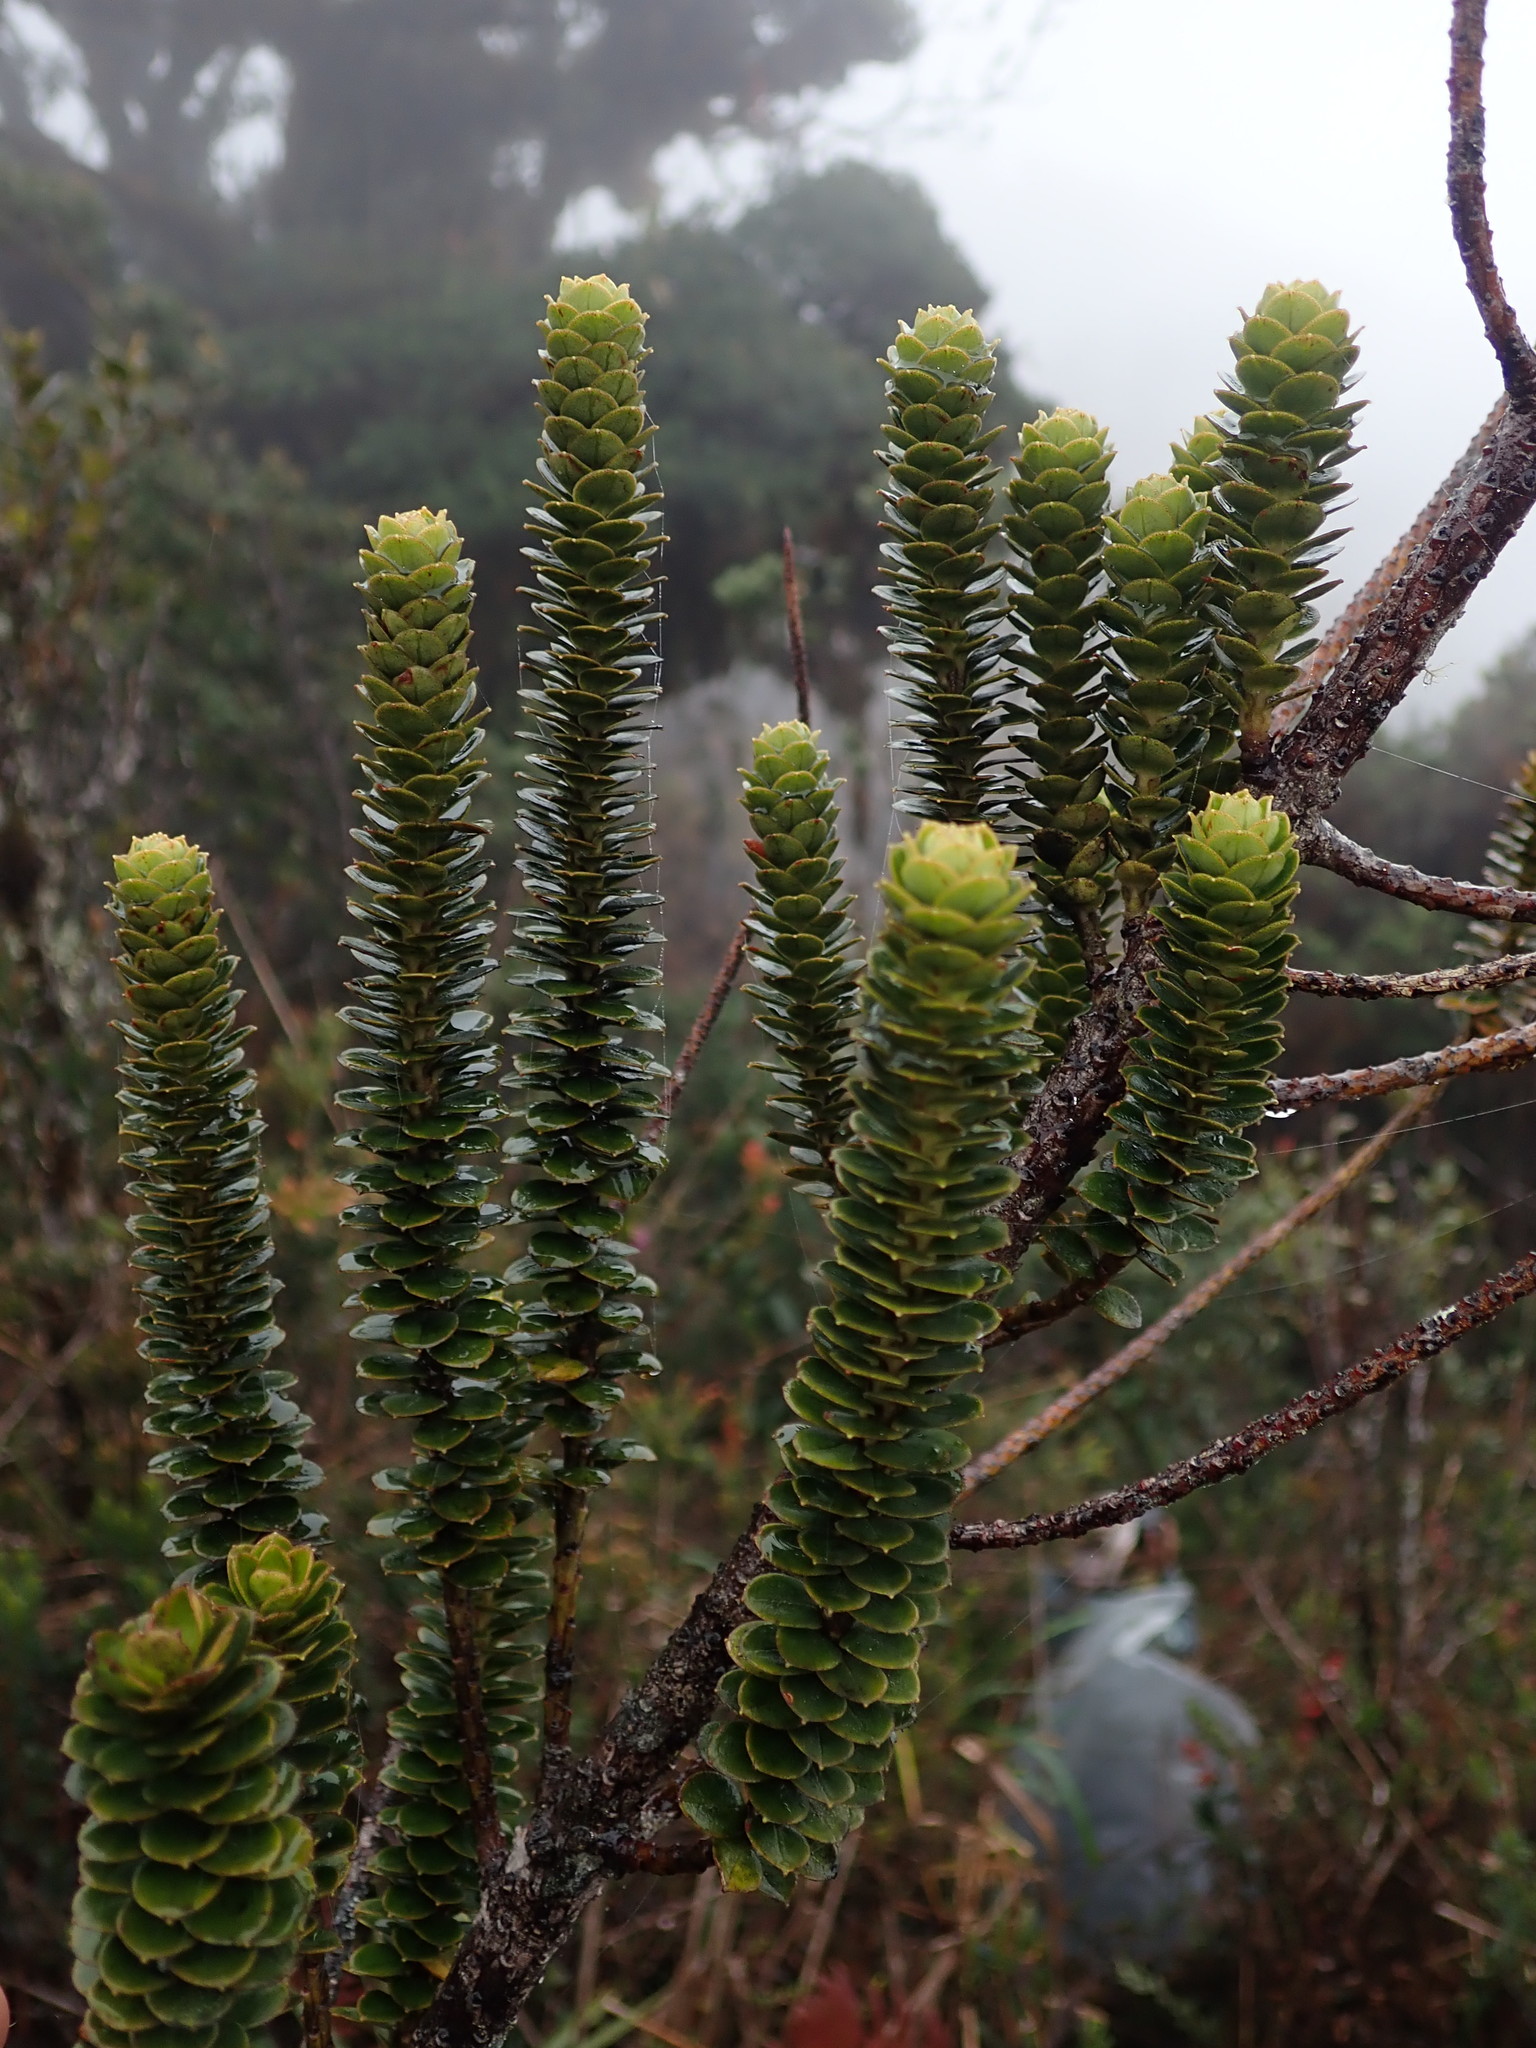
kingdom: Plantae
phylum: Tracheophyta
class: Magnoliopsida
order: Asterales
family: Asteraceae
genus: Chuquiraga
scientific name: Chuquiraga jussieui
